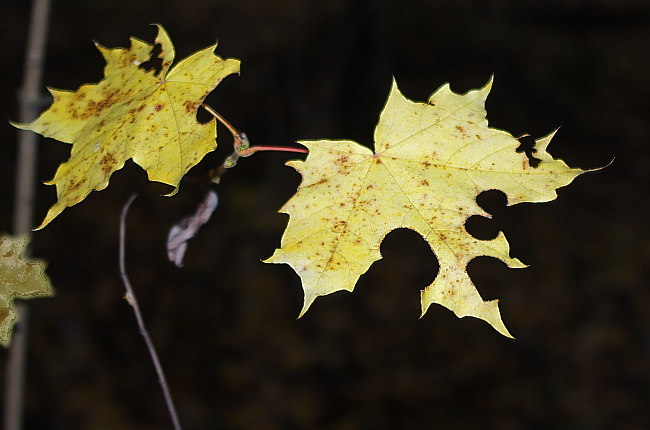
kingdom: Plantae
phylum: Tracheophyta
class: Magnoliopsida
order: Sapindales
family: Sapindaceae
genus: Acer
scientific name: Acer platanoides
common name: Norway maple
